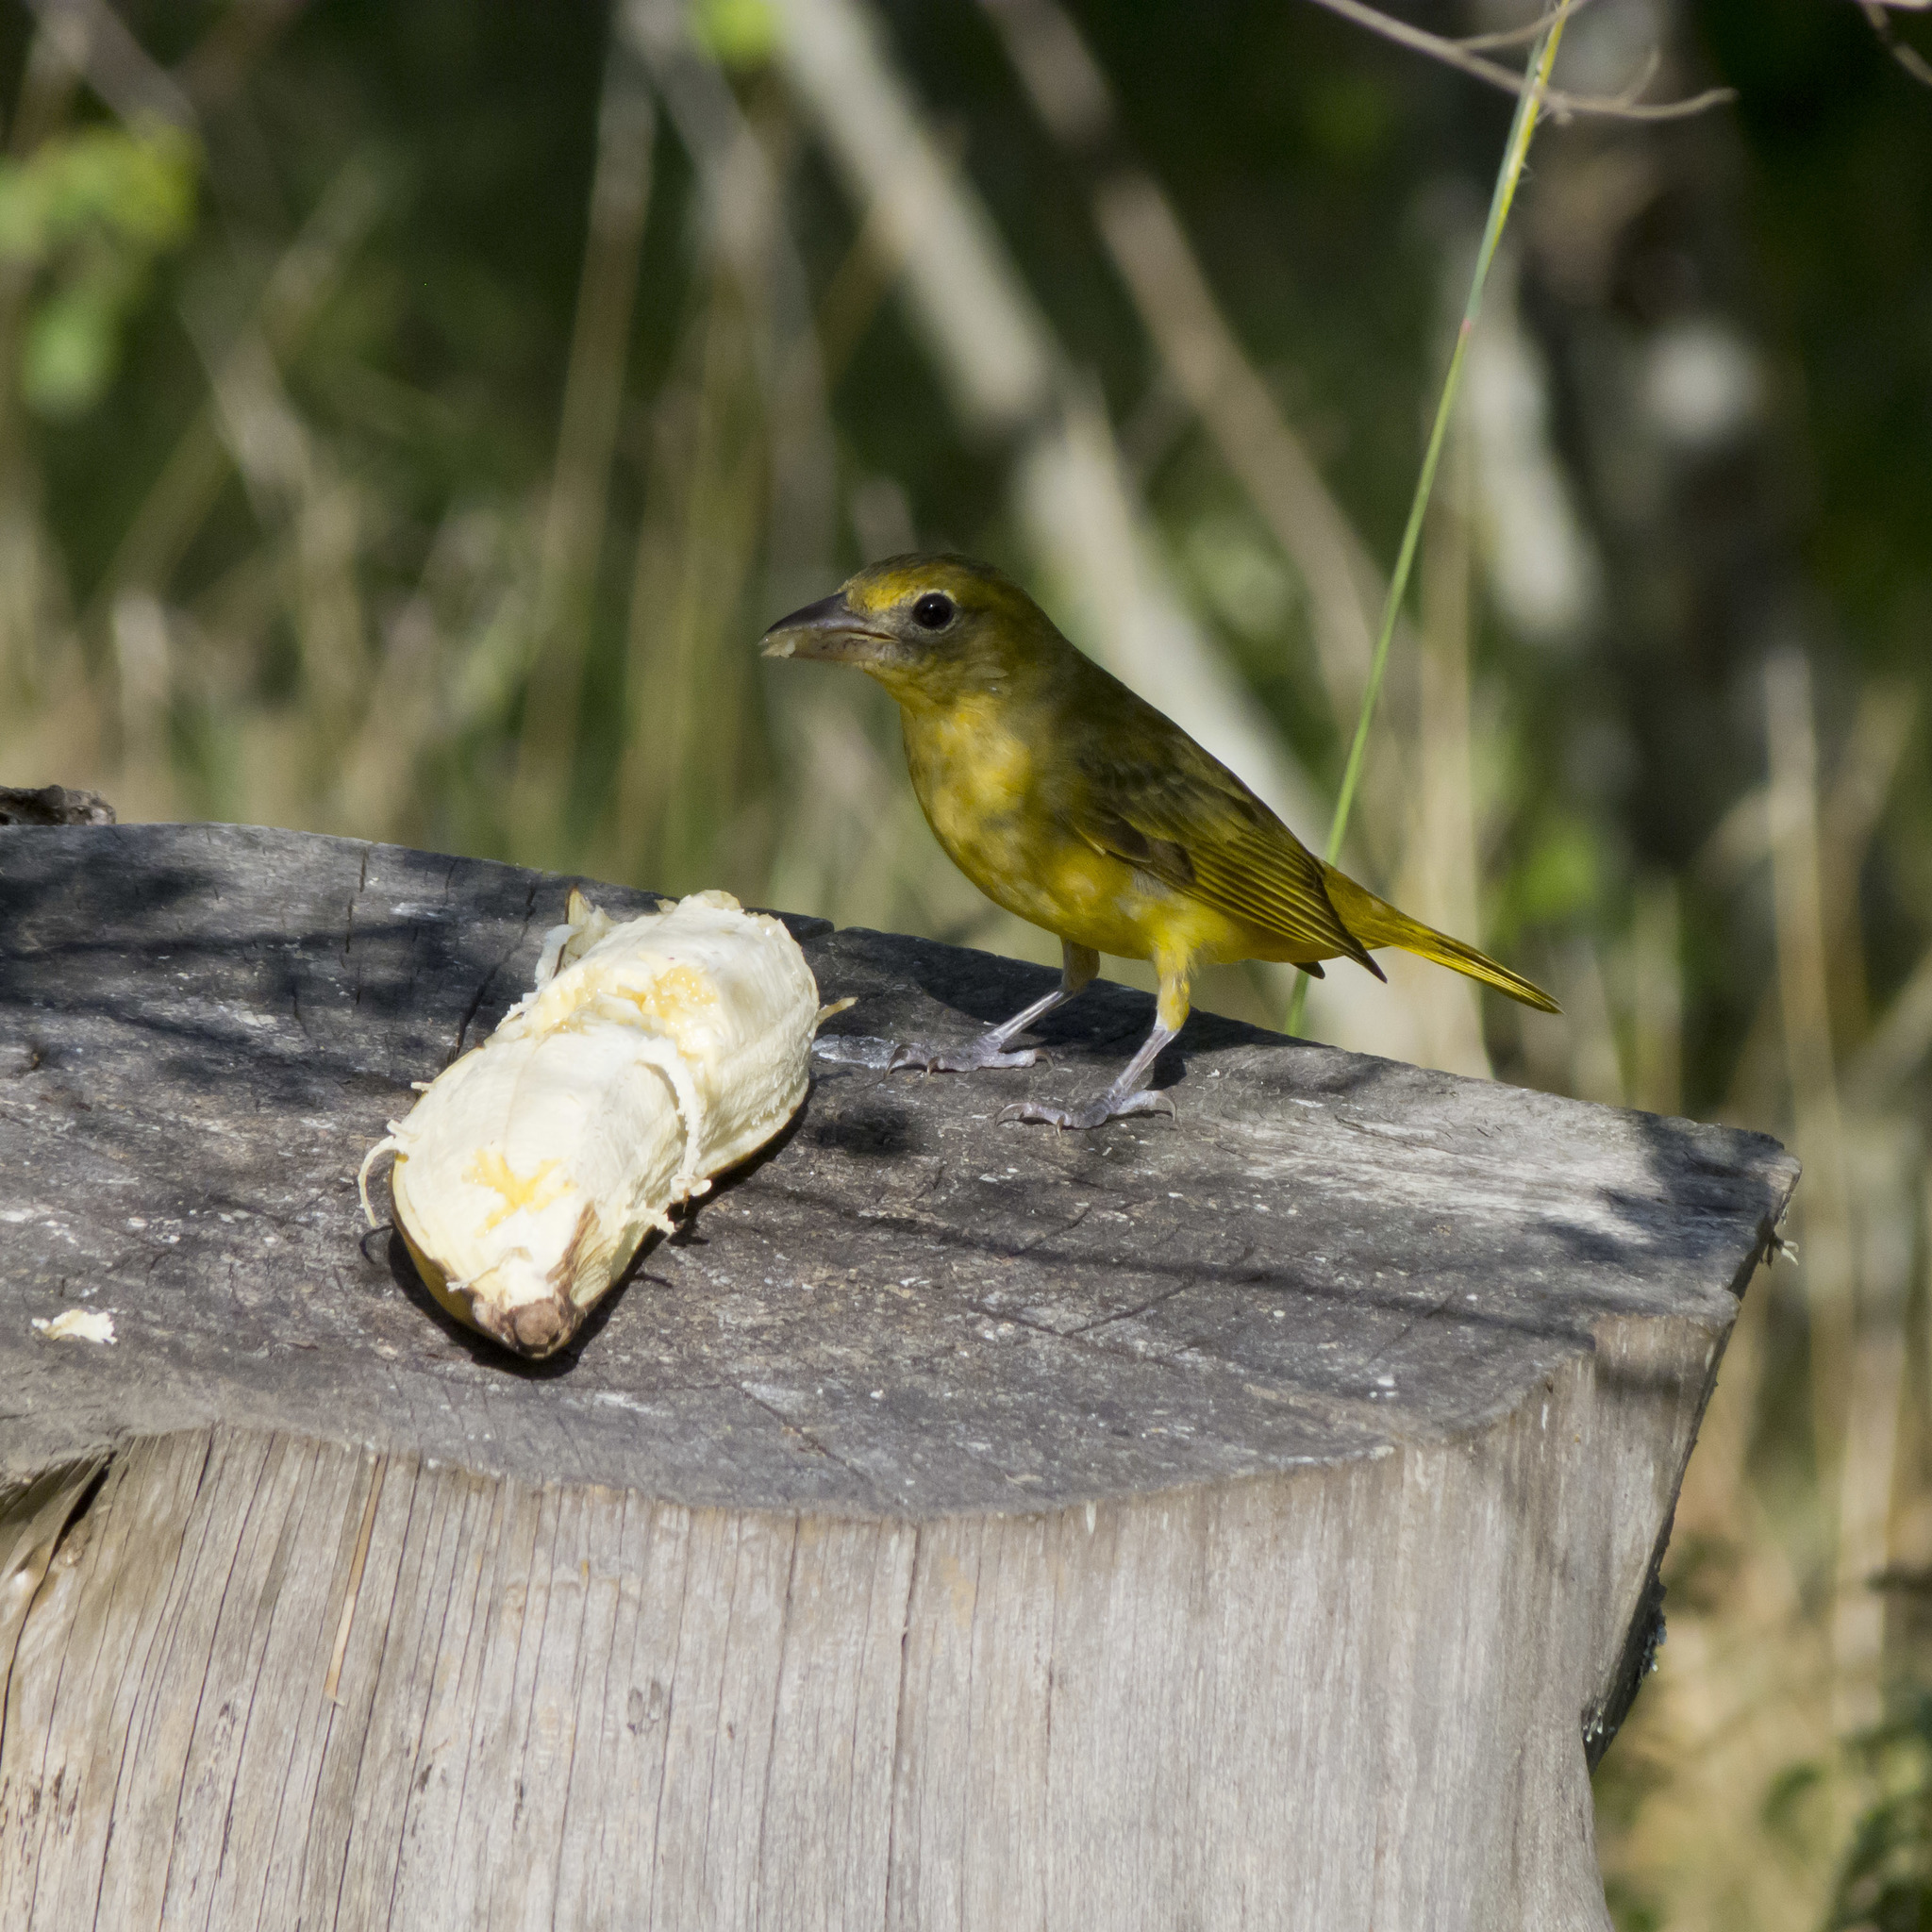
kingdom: Animalia
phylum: Chordata
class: Aves
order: Passeriformes
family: Cardinalidae
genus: Piranga
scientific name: Piranga flava
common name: Red tanager
